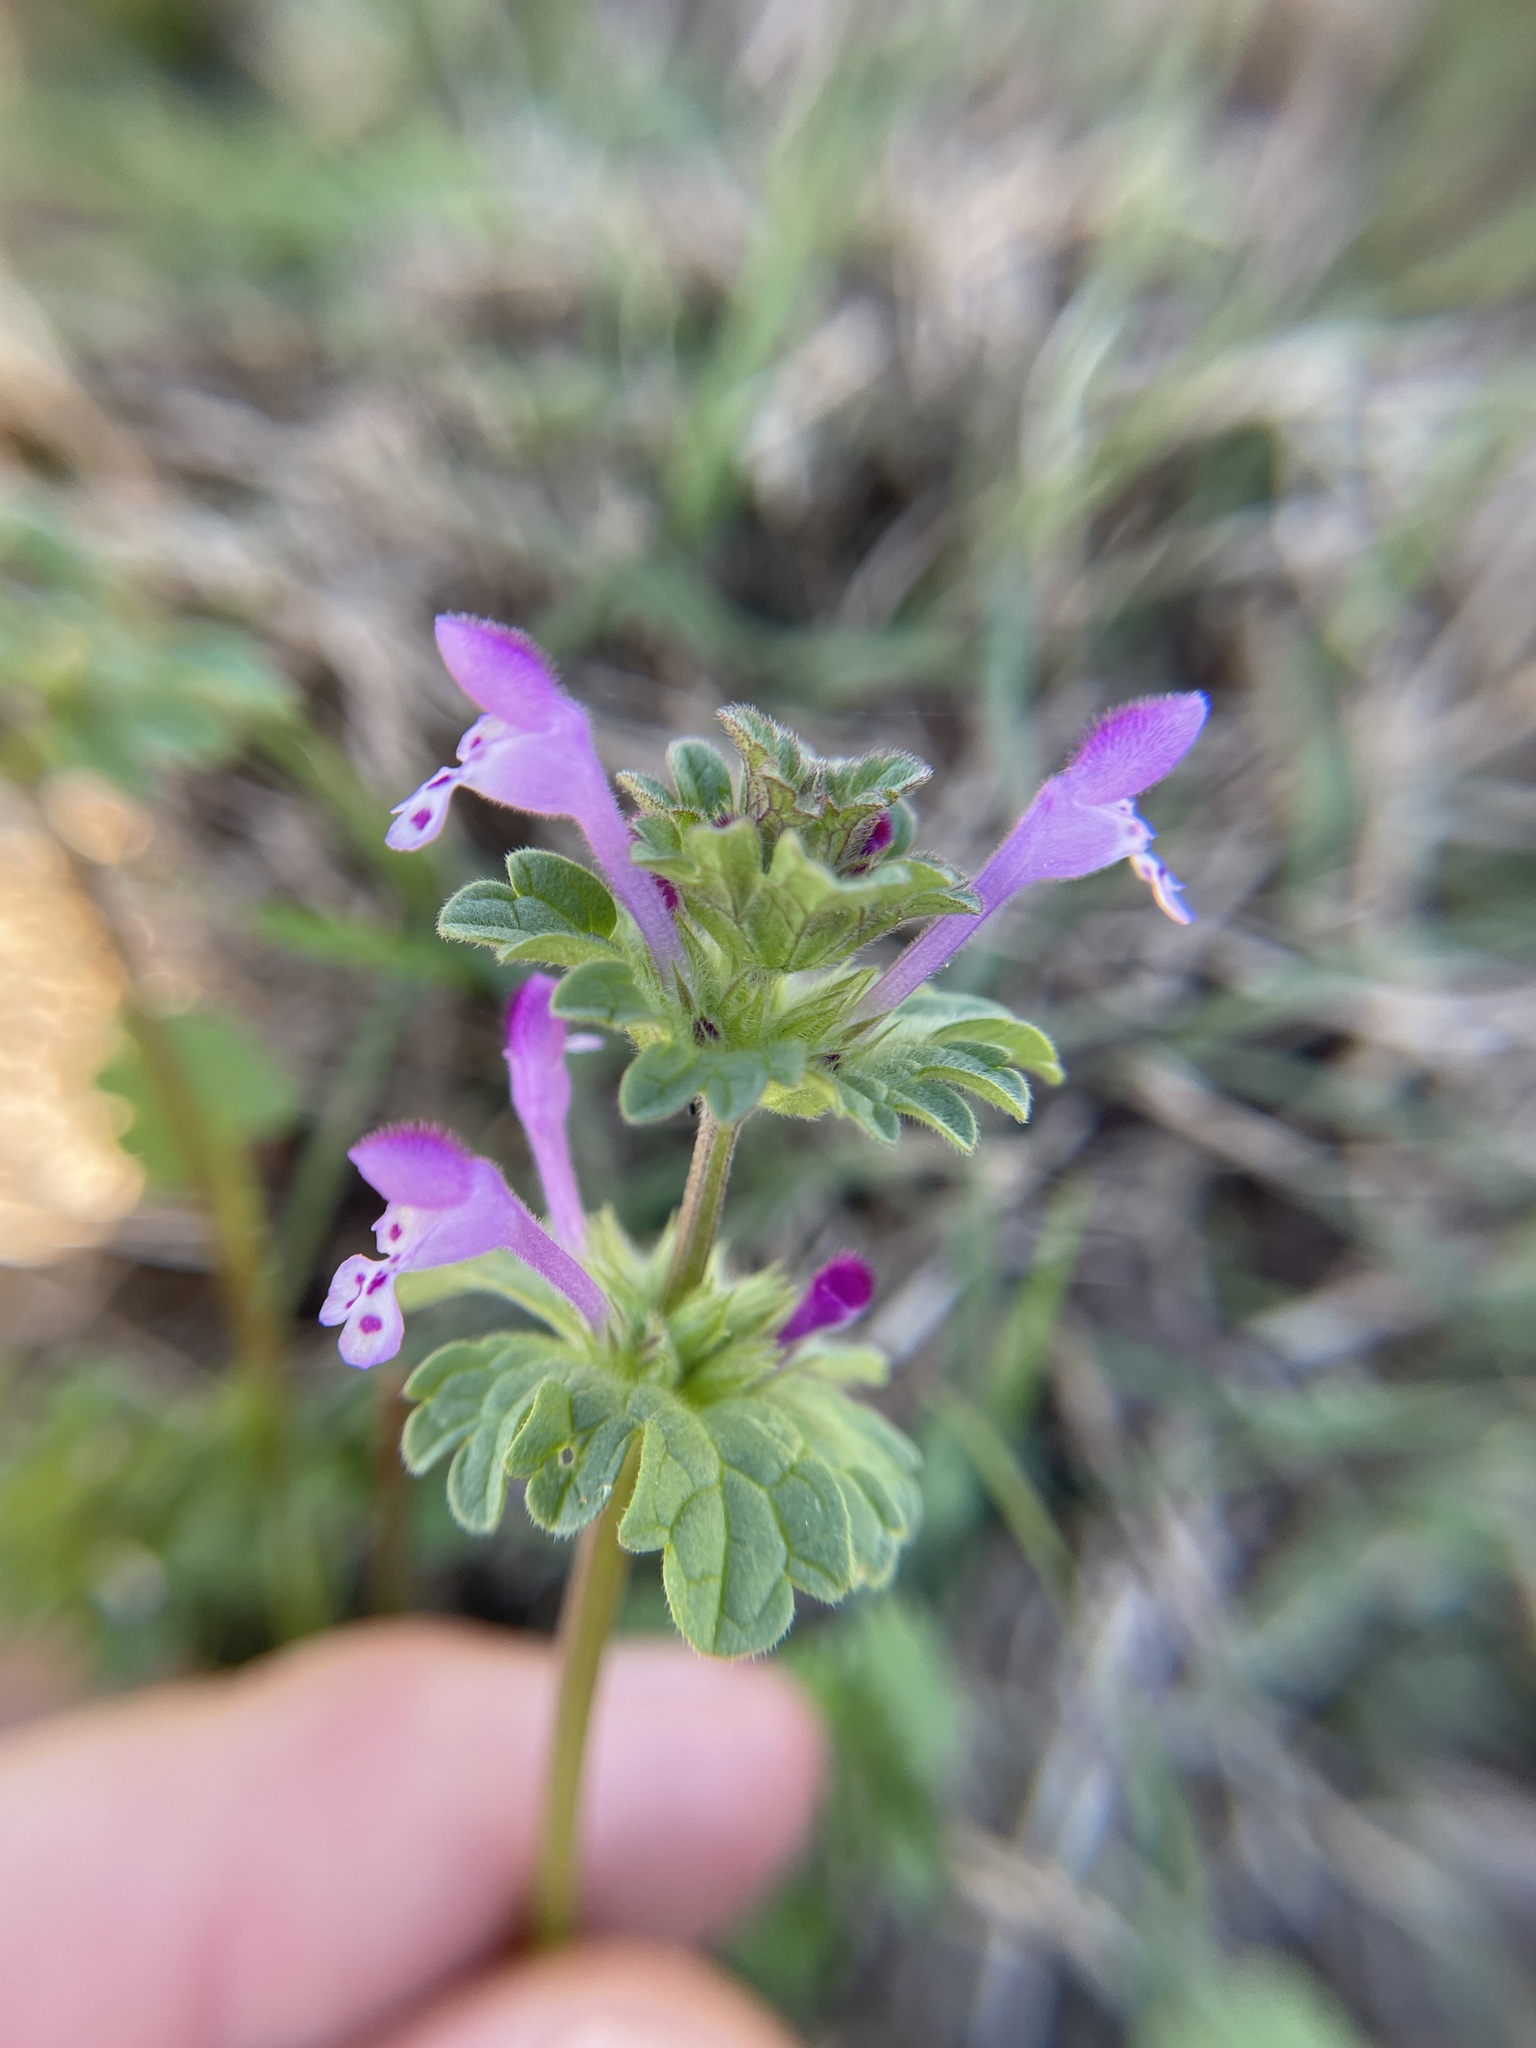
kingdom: Plantae
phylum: Tracheophyta
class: Magnoliopsida
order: Lamiales
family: Lamiaceae
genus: Lamium
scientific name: Lamium amplexicaule
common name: Henbit dead-nettle
